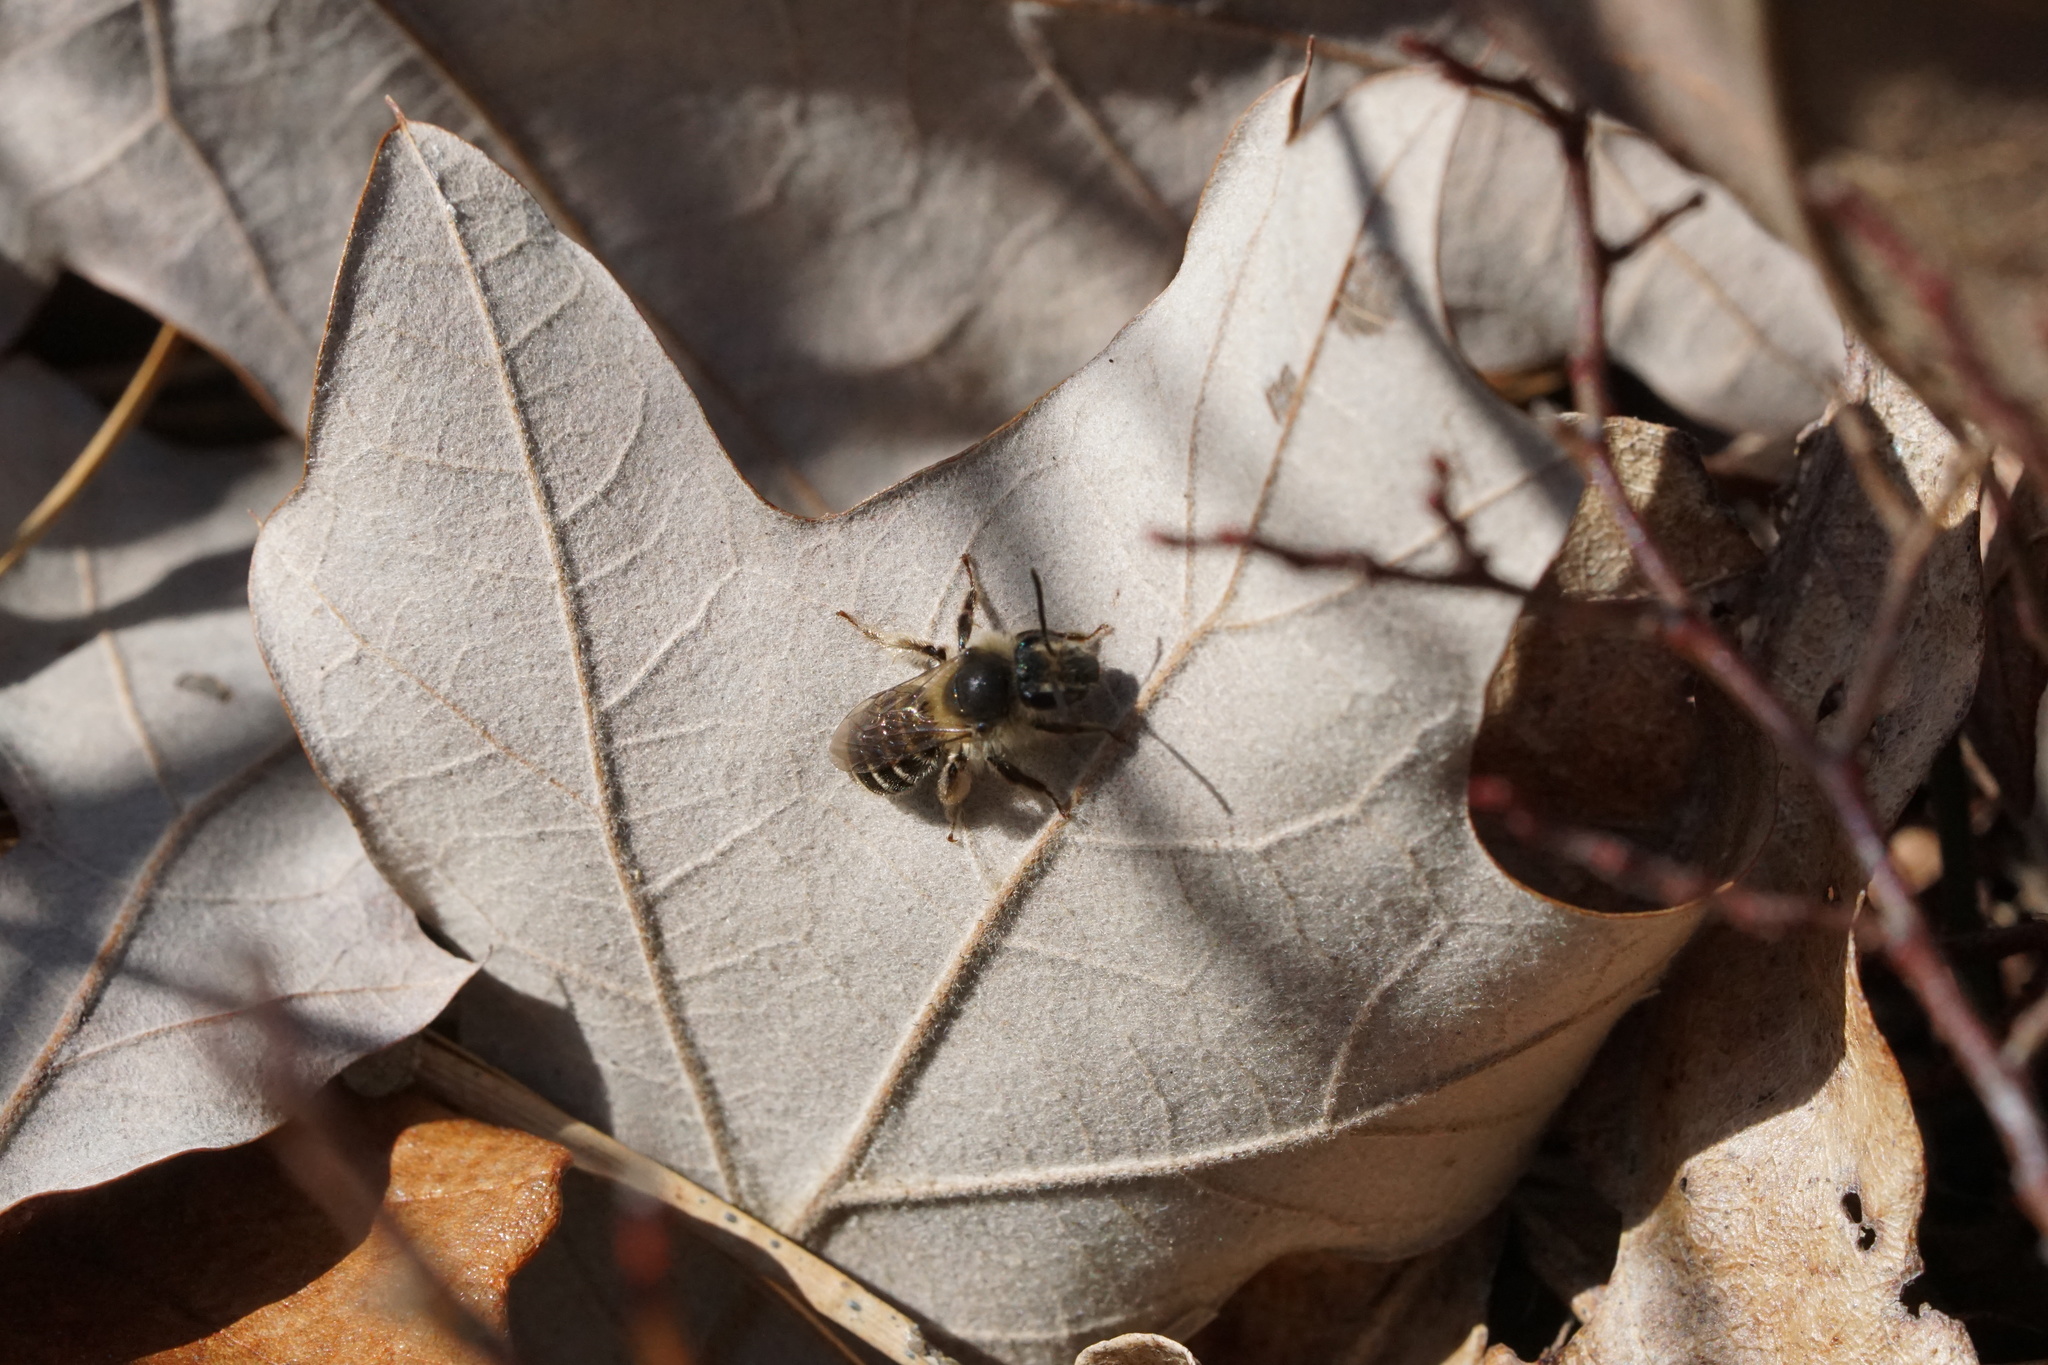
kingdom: Animalia
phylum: Arthropoda
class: Insecta
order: Hymenoptera
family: Andrenidae
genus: Andrena
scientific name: Andrena bradleyi
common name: Bradley's mining bee
